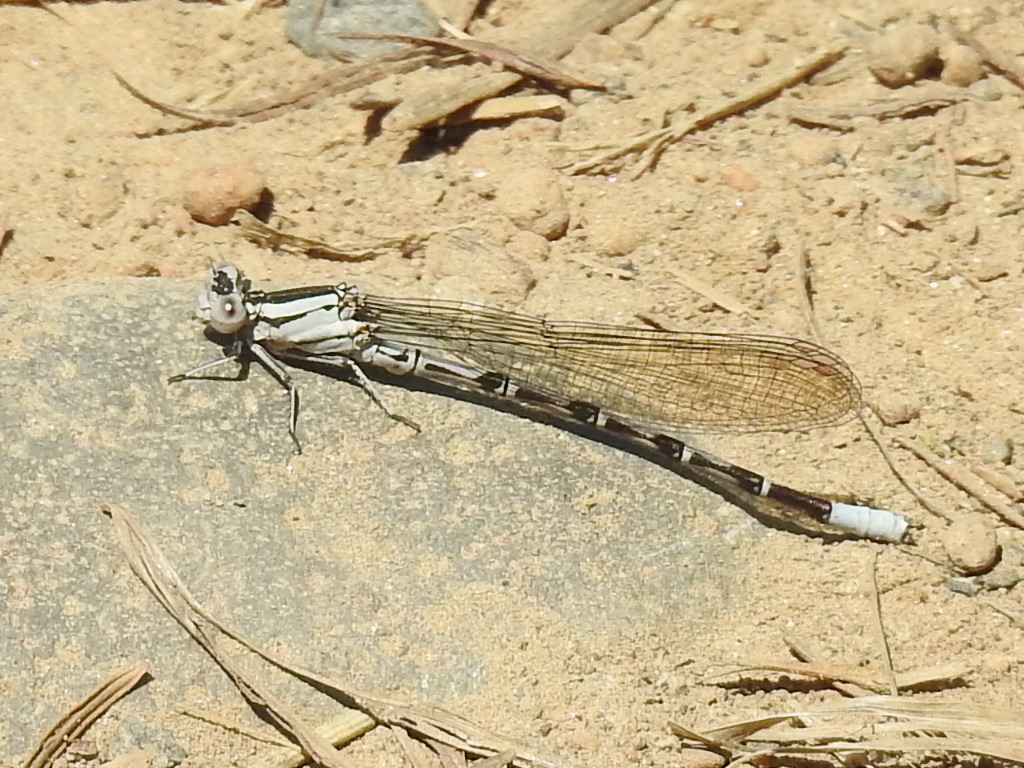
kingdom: Animalia
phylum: Arthropoda
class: Insecta
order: Odonata
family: Coenagrionidae
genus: Argia
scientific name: Argia vivida
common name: Vivid dancer
